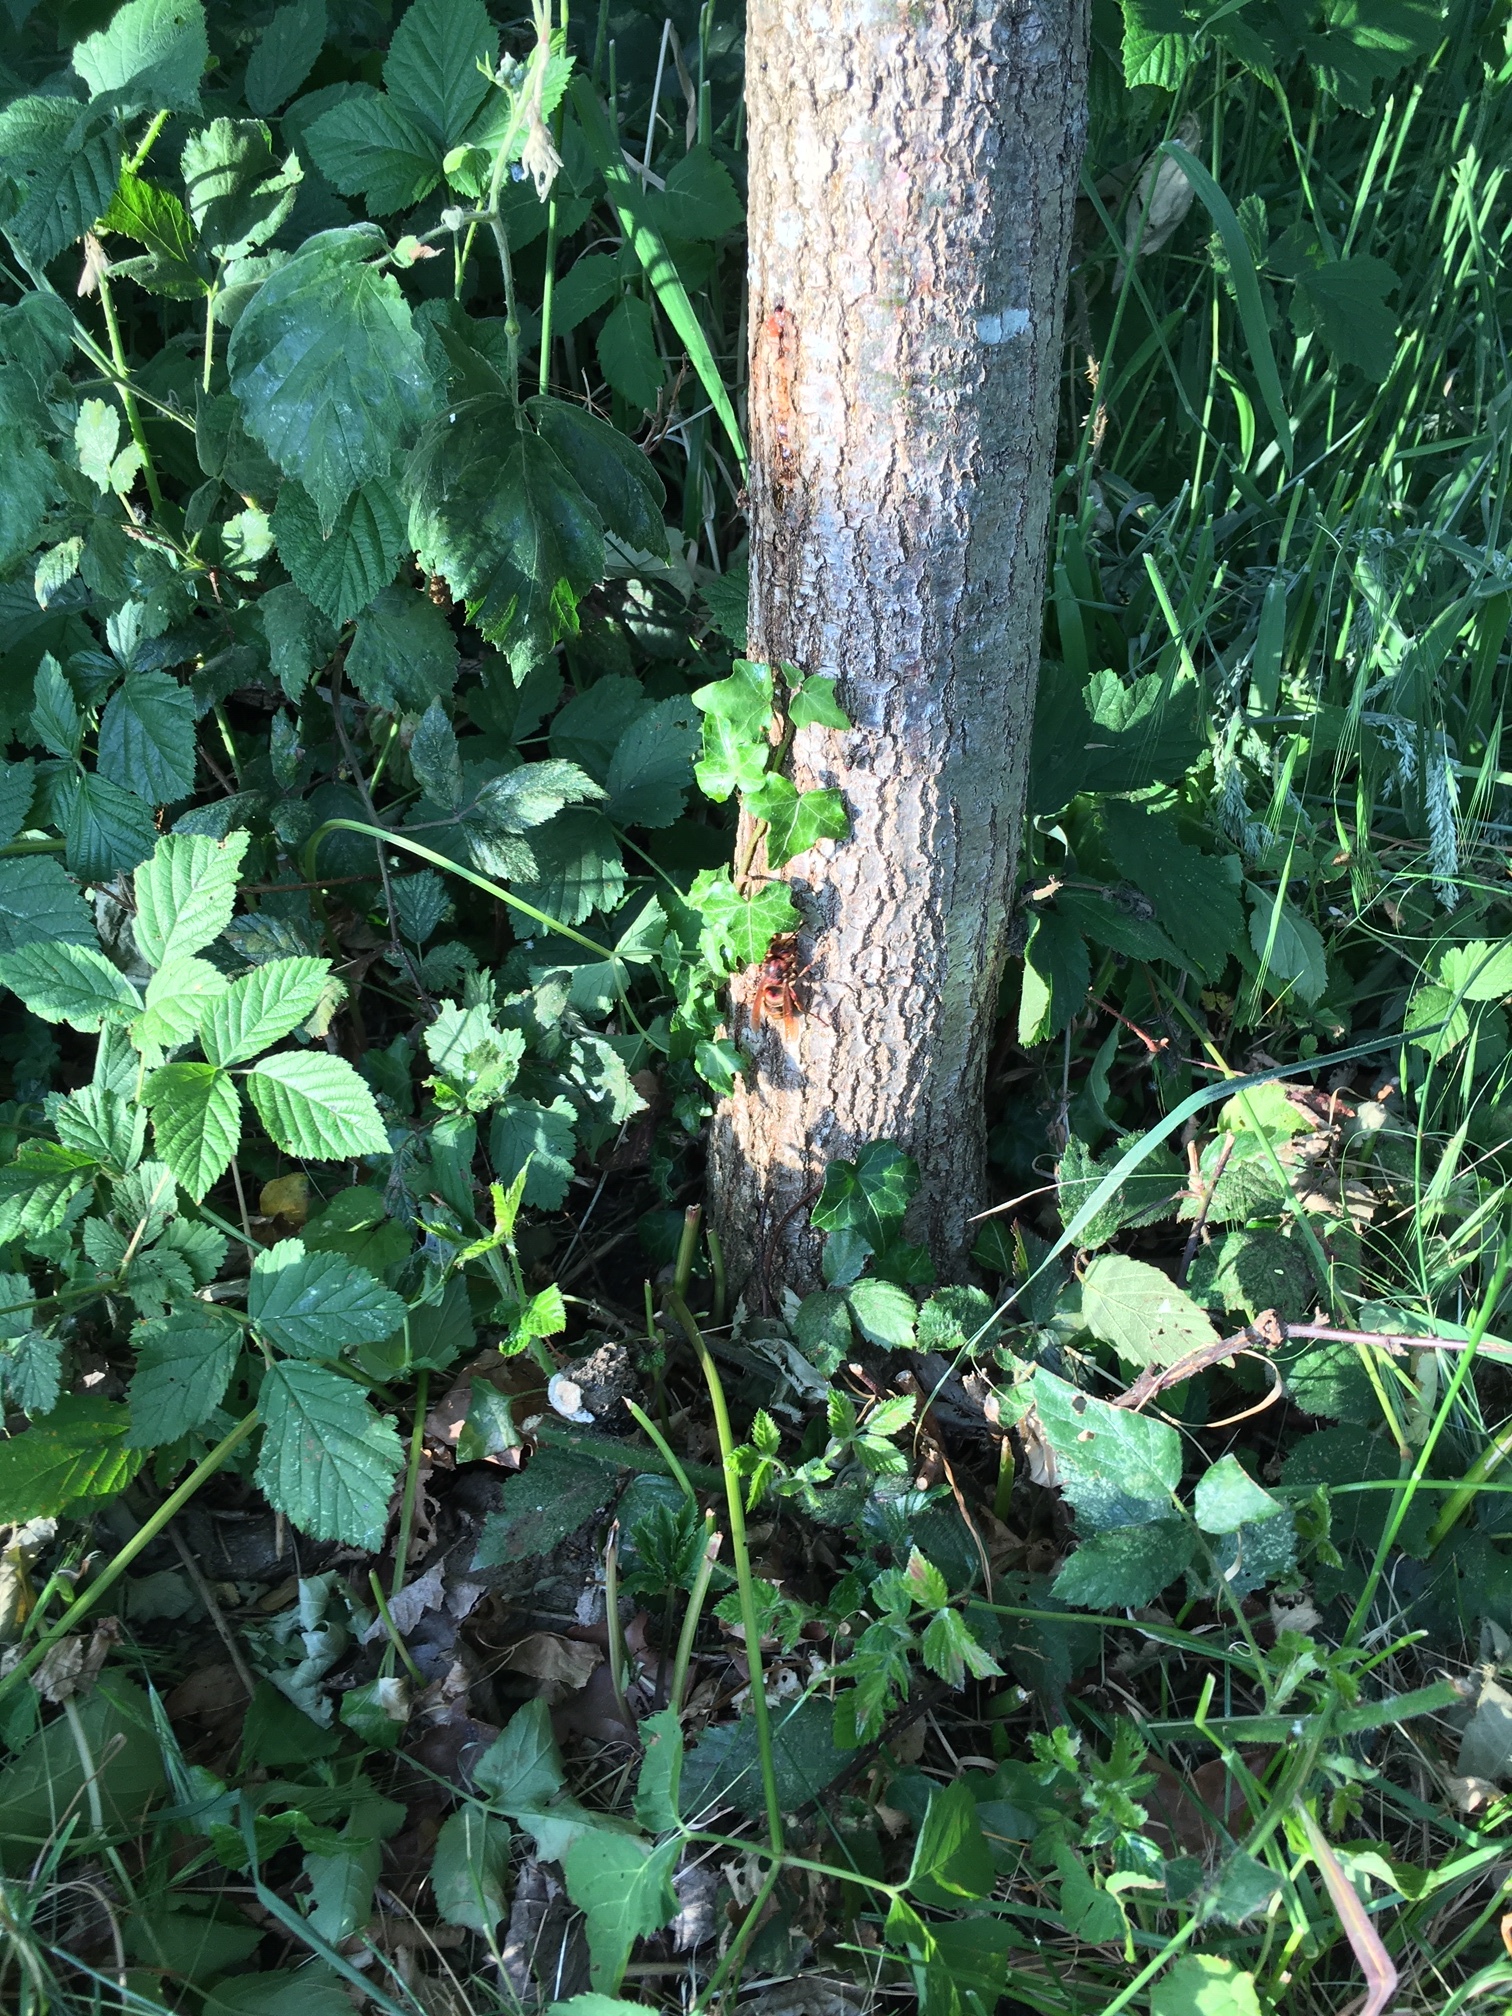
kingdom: Animalia
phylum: Arthropoda
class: Insecta
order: Hymenoptera
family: Vespidae
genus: Vespa
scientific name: Vespa crabro
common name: Hornet
